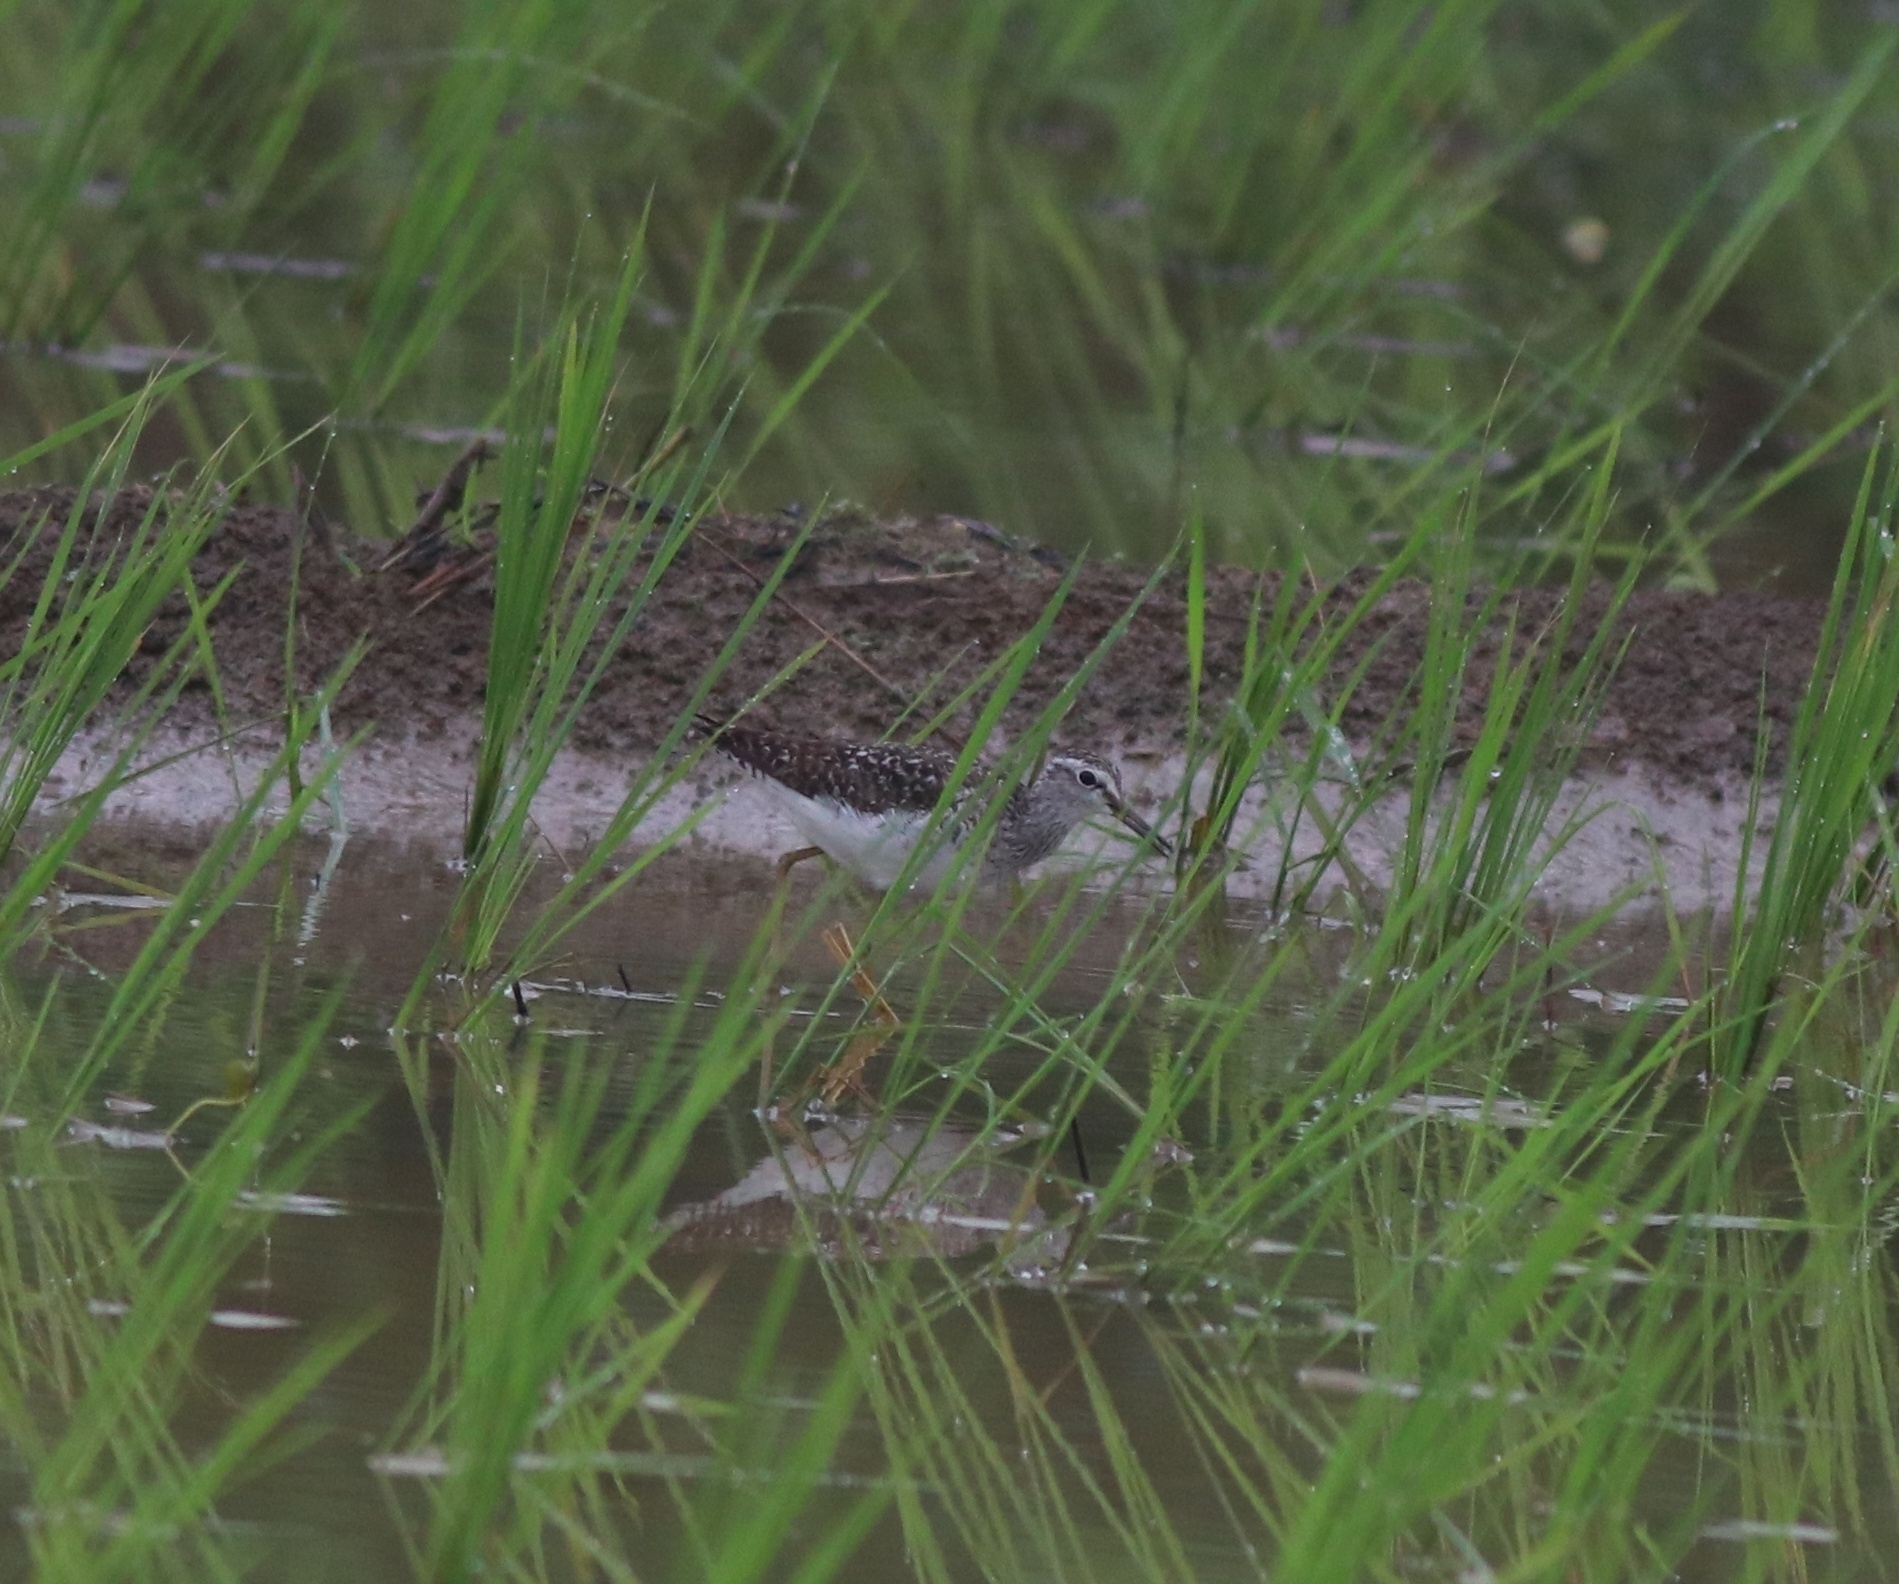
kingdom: Animalia
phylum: Chordata
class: Aves
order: Charadriiformes
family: Scolopacidae
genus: Tringa
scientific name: Tringa glareola
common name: Wood sandpiper
